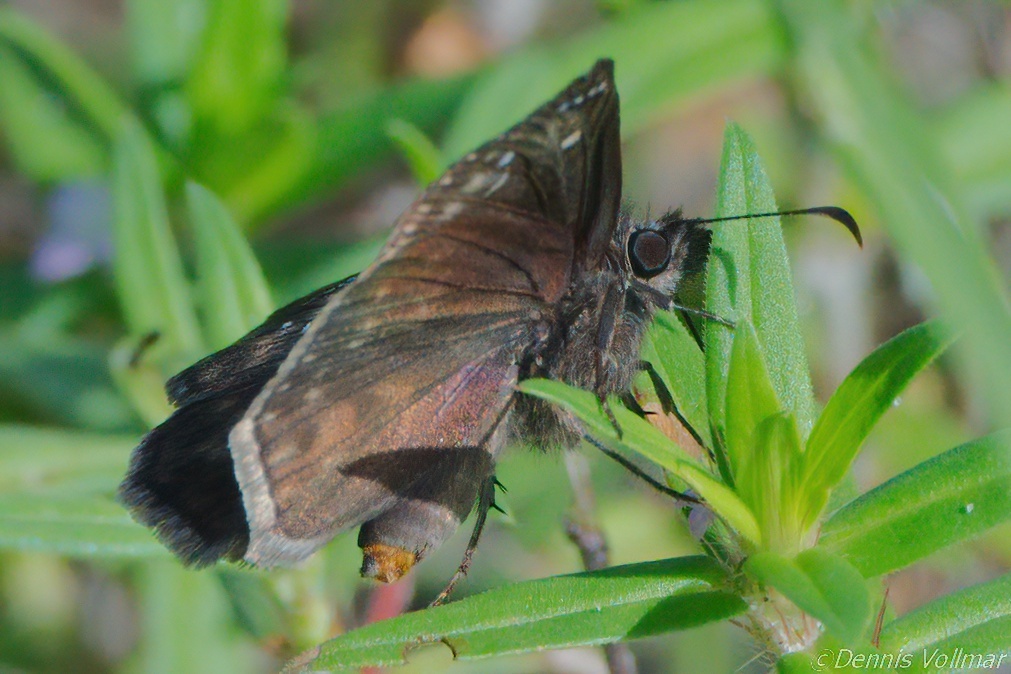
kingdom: Animalia
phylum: Arthropoda
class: Insecta
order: Lepidoptera
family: Hesperiidae
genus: Erynnis
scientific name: Erynnis zarucco
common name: Zarucco duskywing
